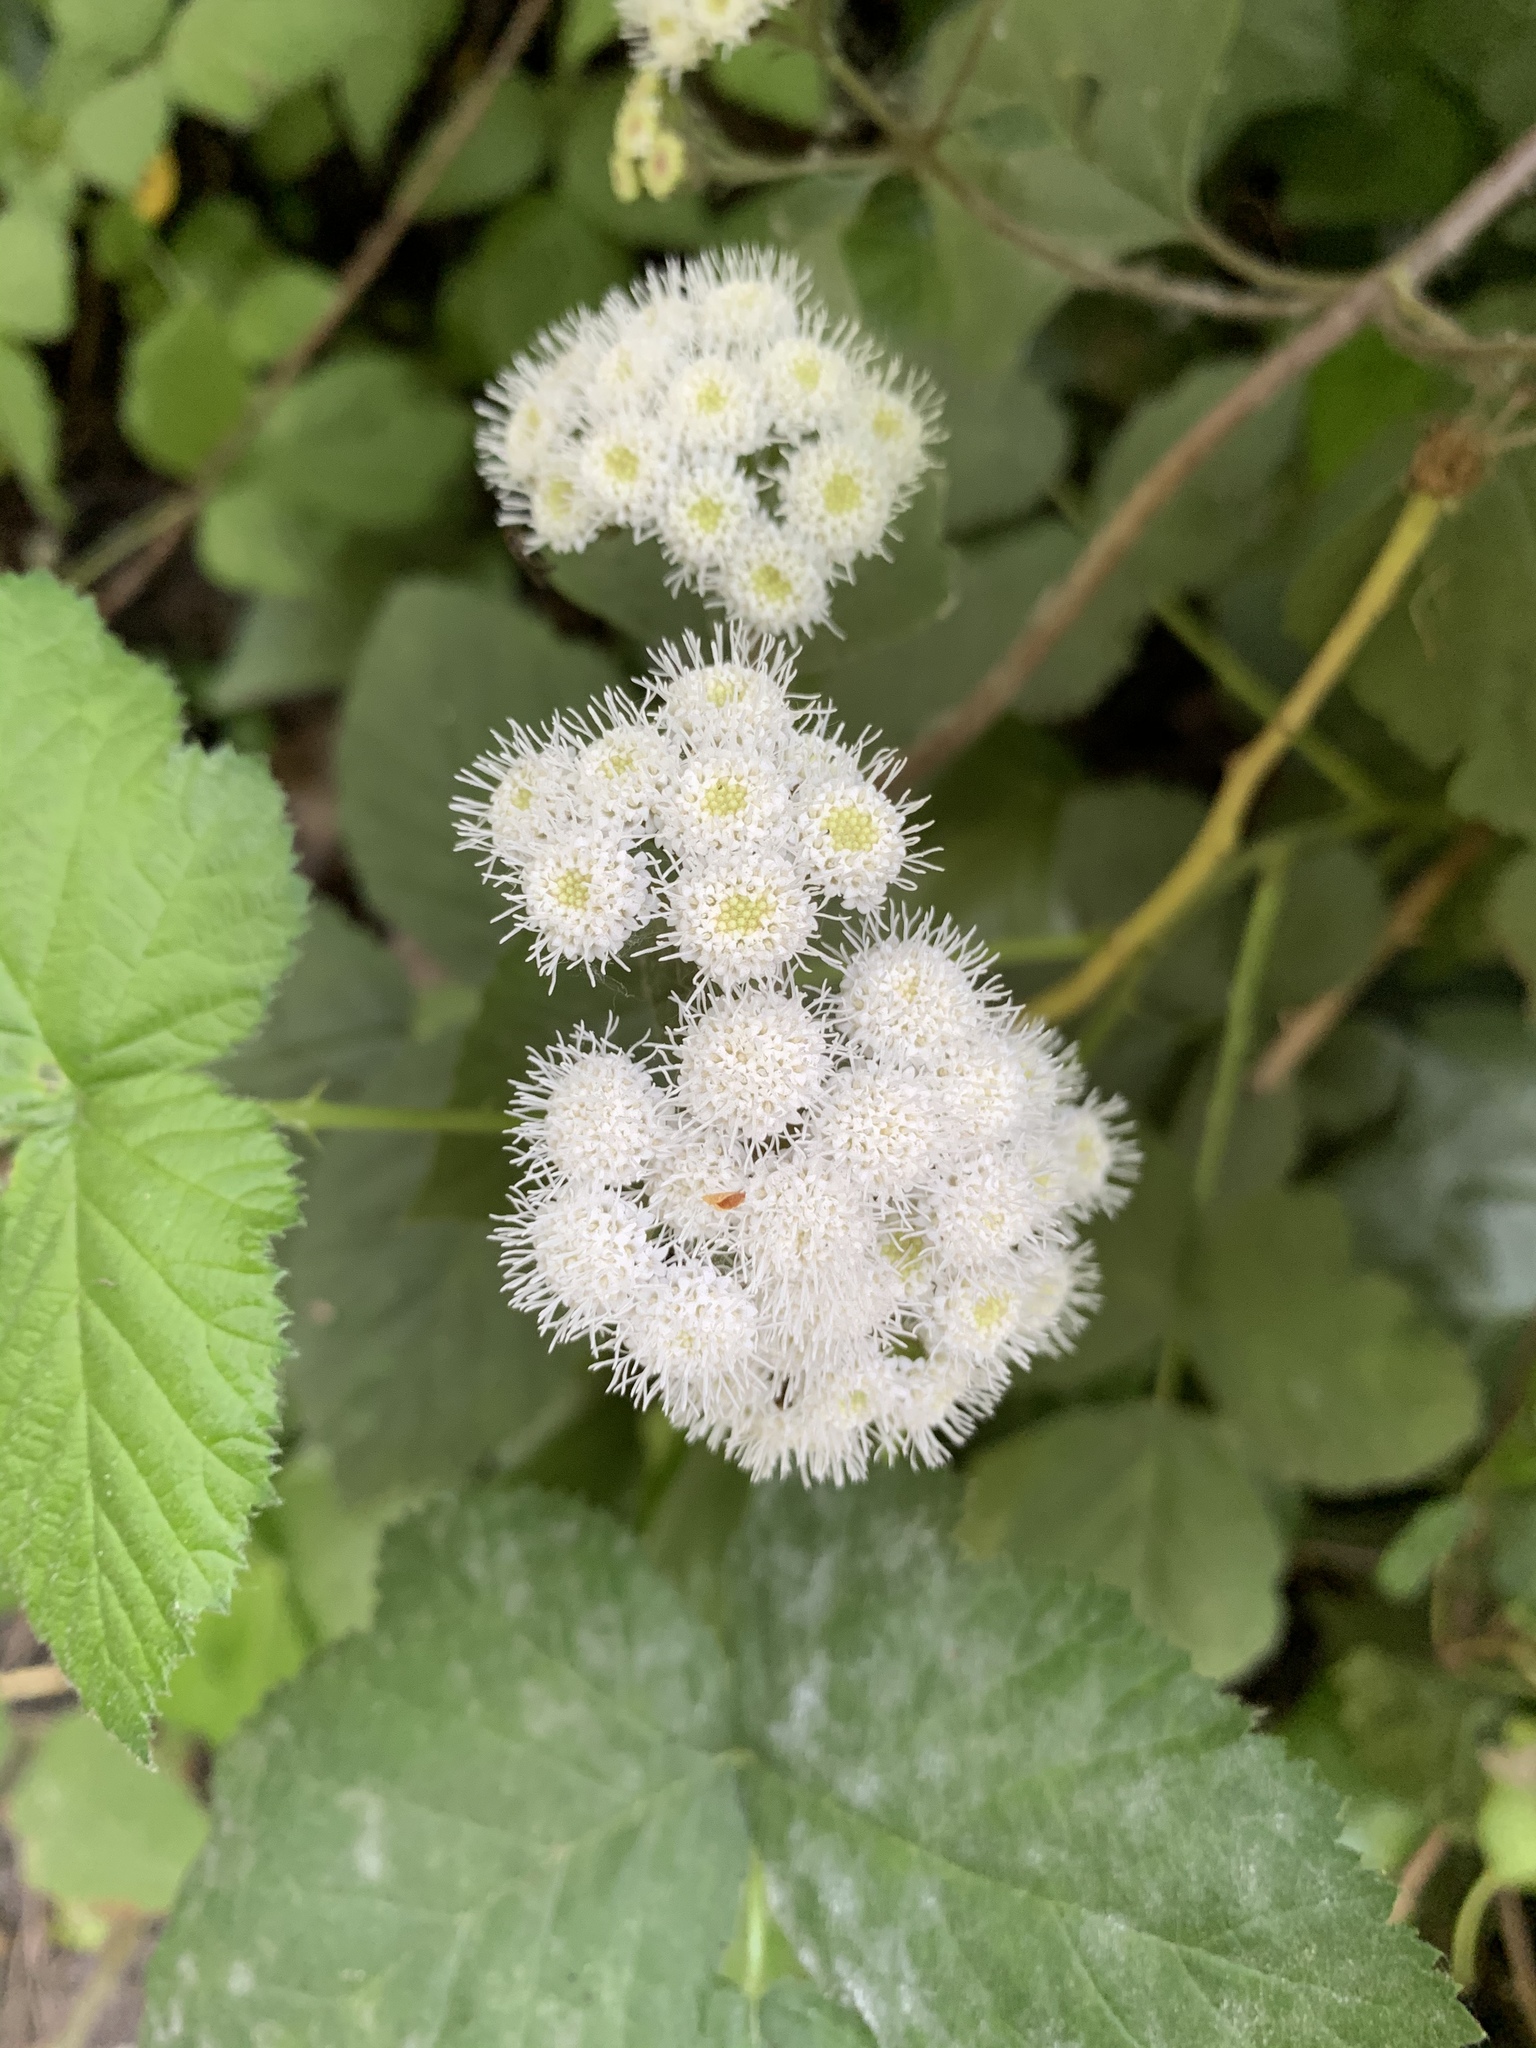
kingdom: Plantae
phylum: Tracheophyta
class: Magnoliopsida
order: Asterales
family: Asteraceae
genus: Ageratina
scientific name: Ageratina adenophora
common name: Sticky snakeroot
